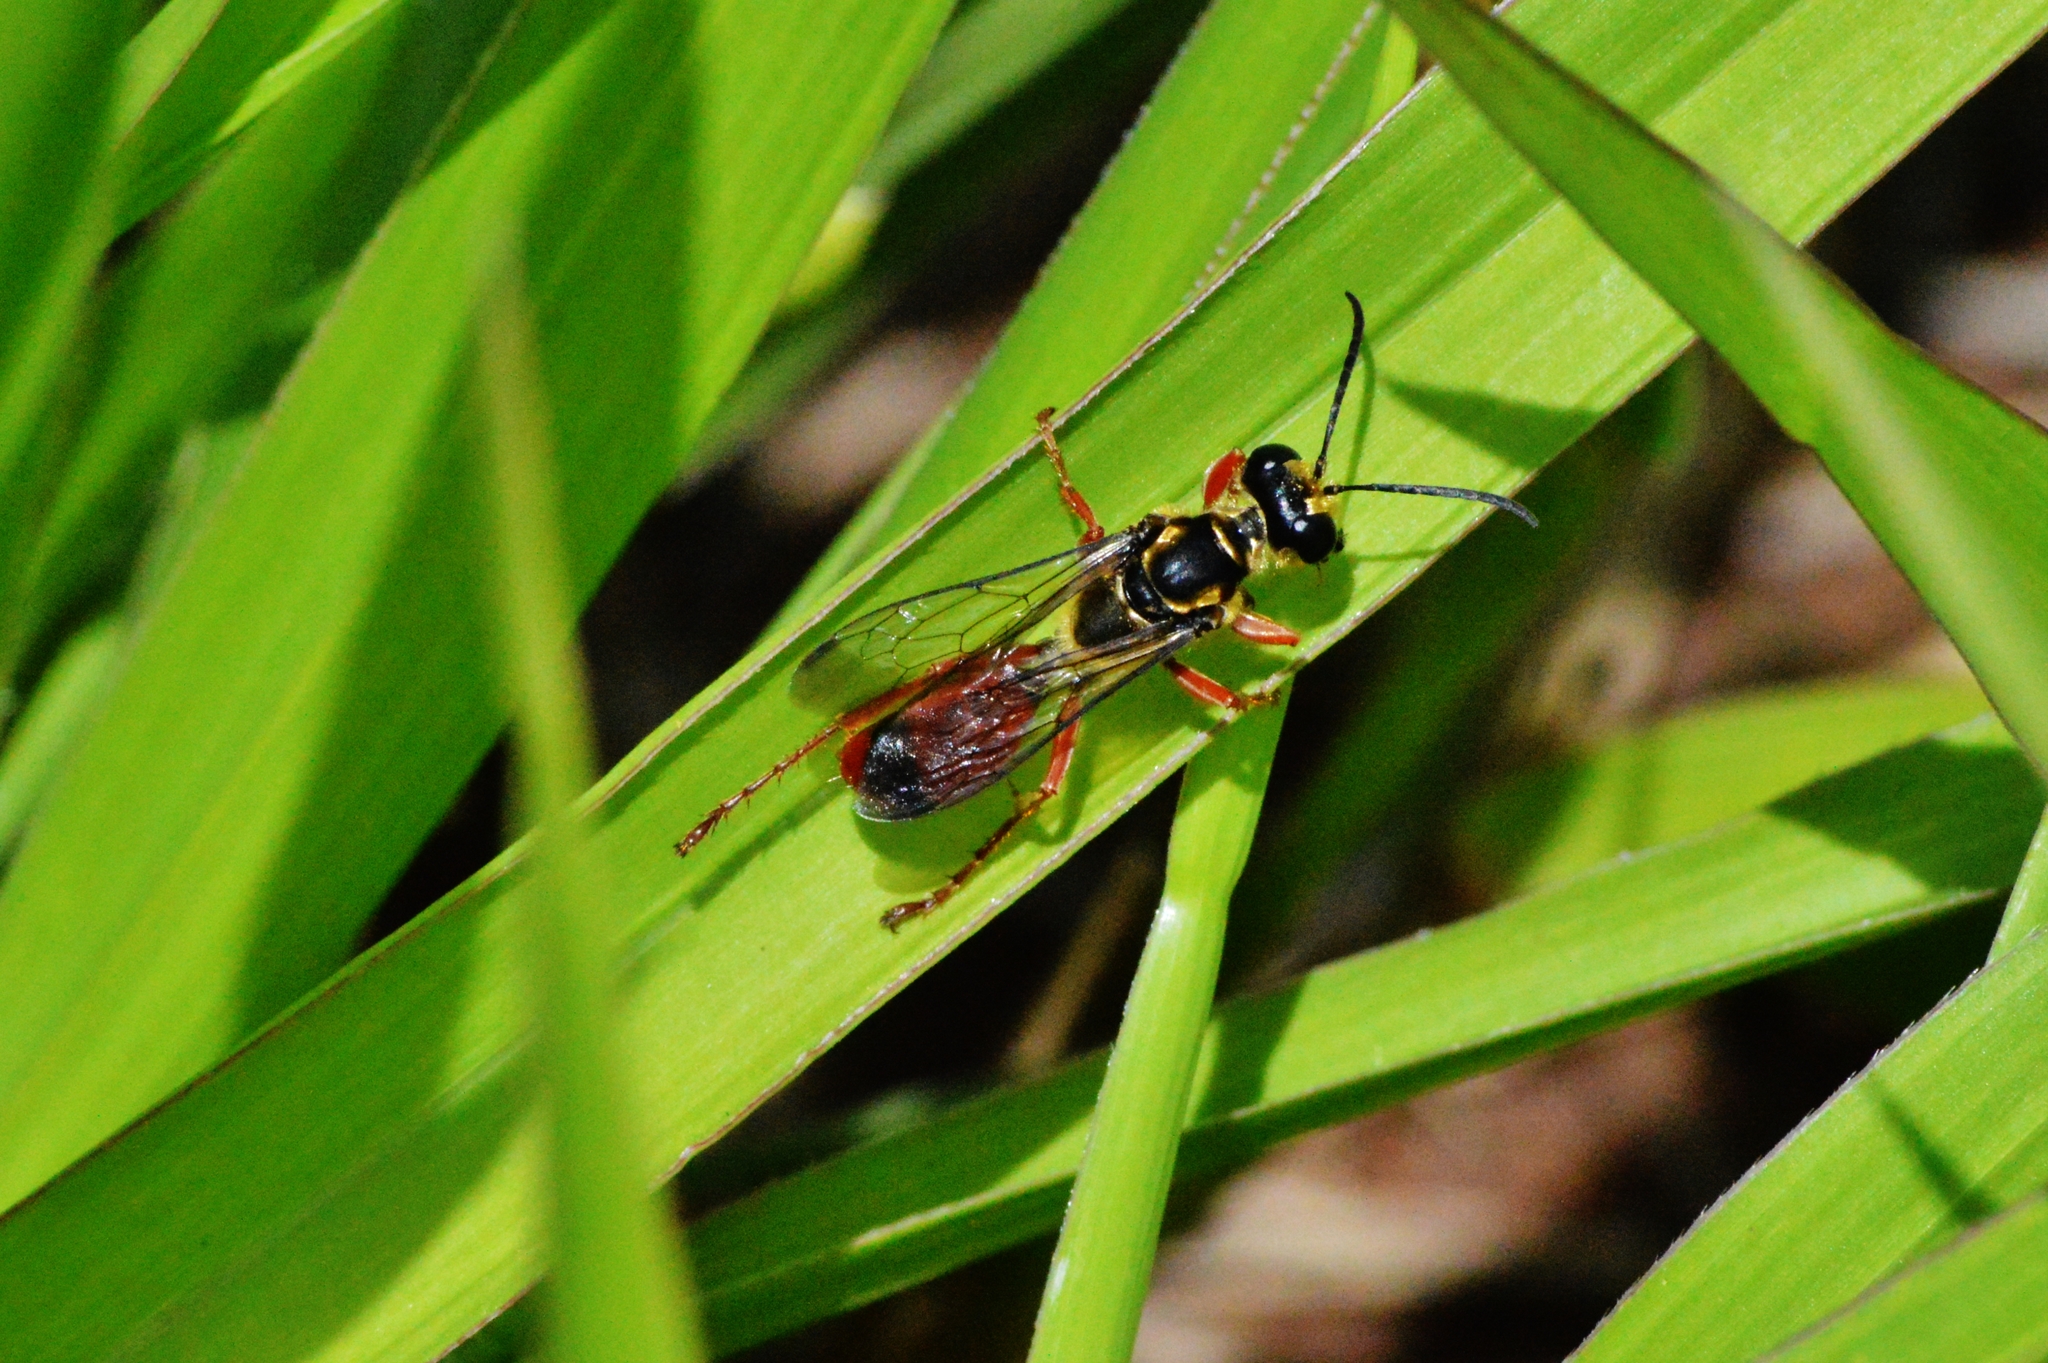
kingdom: Animalia
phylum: Arthropoda
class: Insecta
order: Hymenoptera
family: Sphecidae
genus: Sphex
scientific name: Sphex dorsalis
